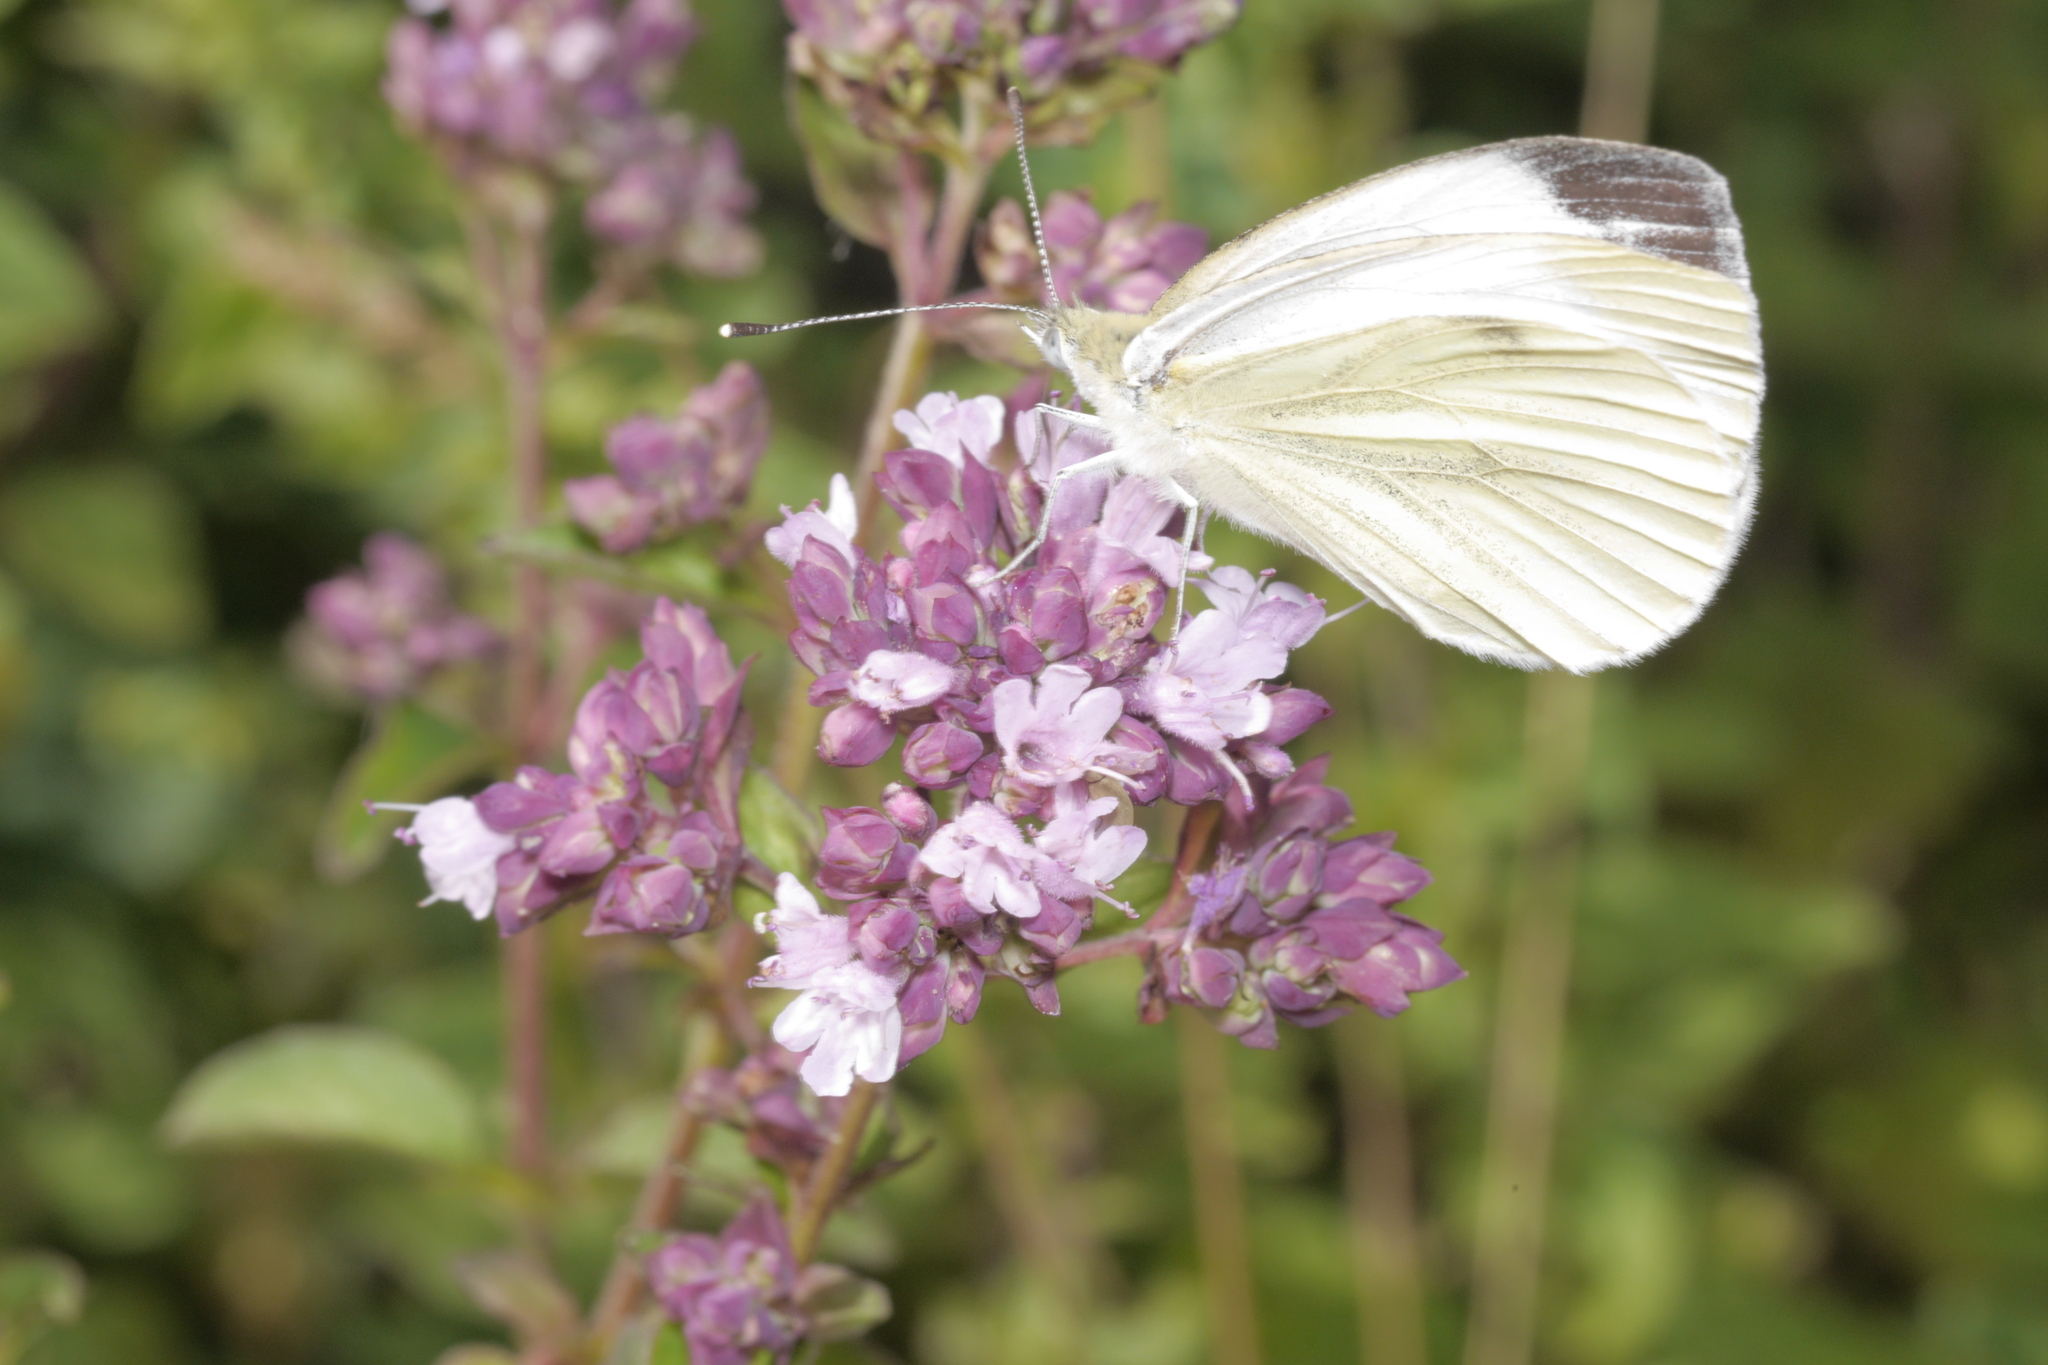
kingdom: Animalia
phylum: Arthropoda
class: Insecta
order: Lepidoptera
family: Pieridae
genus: Pieris
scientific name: Pieris napi
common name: Green-veined white
